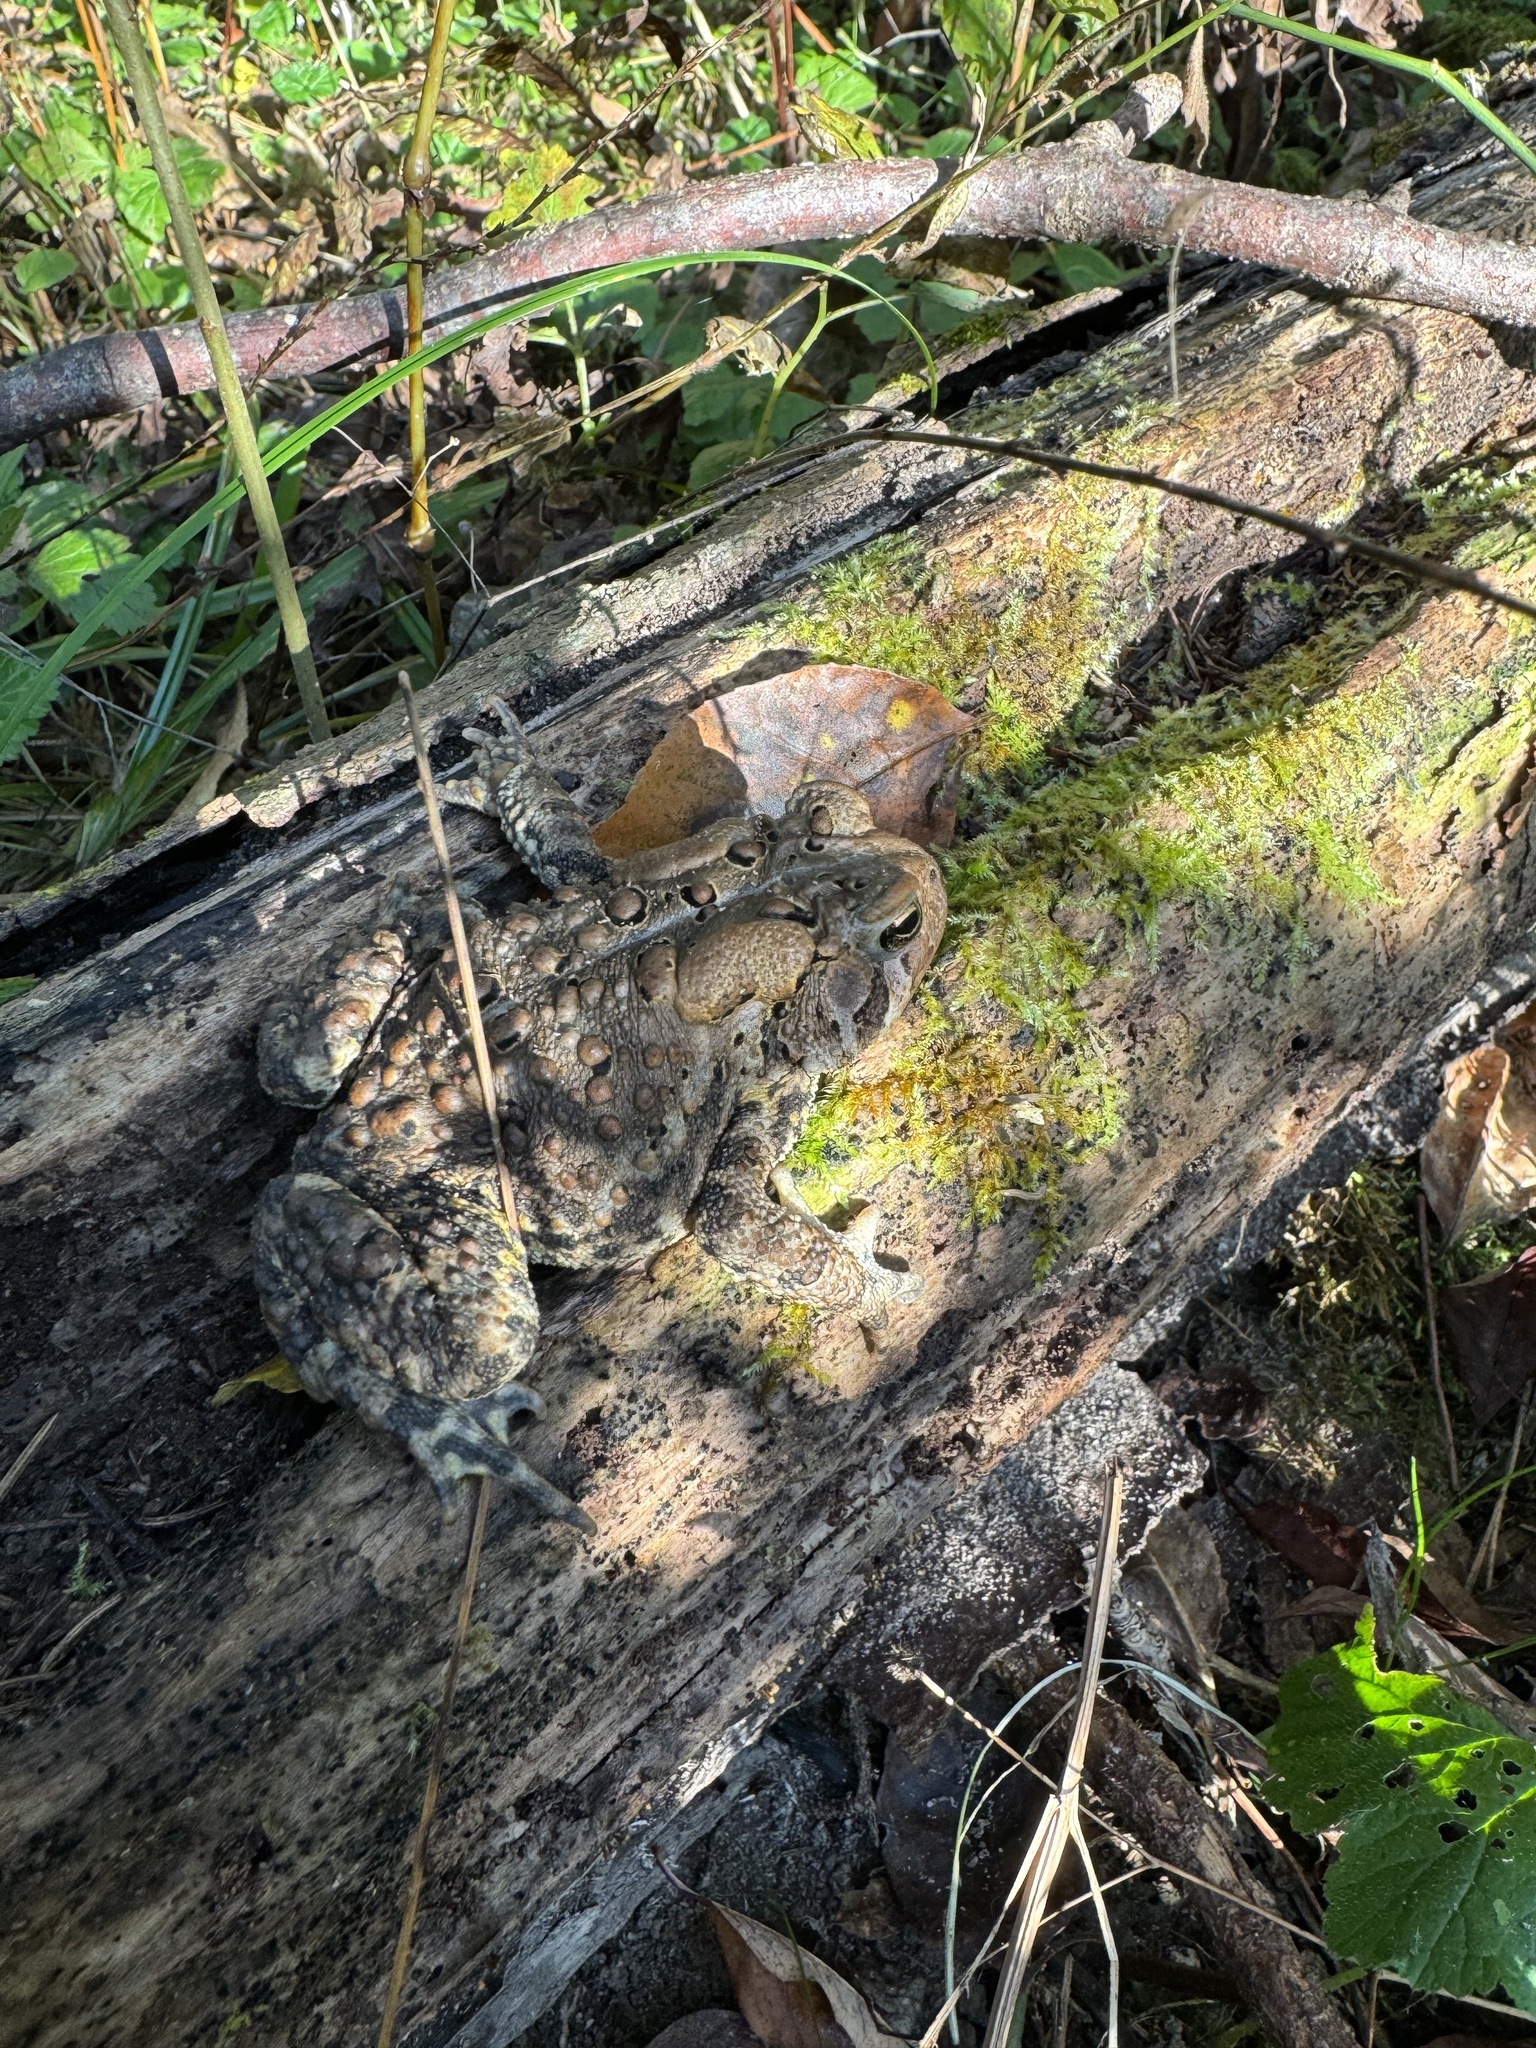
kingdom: Animalia
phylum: Chordata
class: Amphibia
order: Anura
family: Bufonidae
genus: Anaxyrus
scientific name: Anaxyrus americanus
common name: American toad
